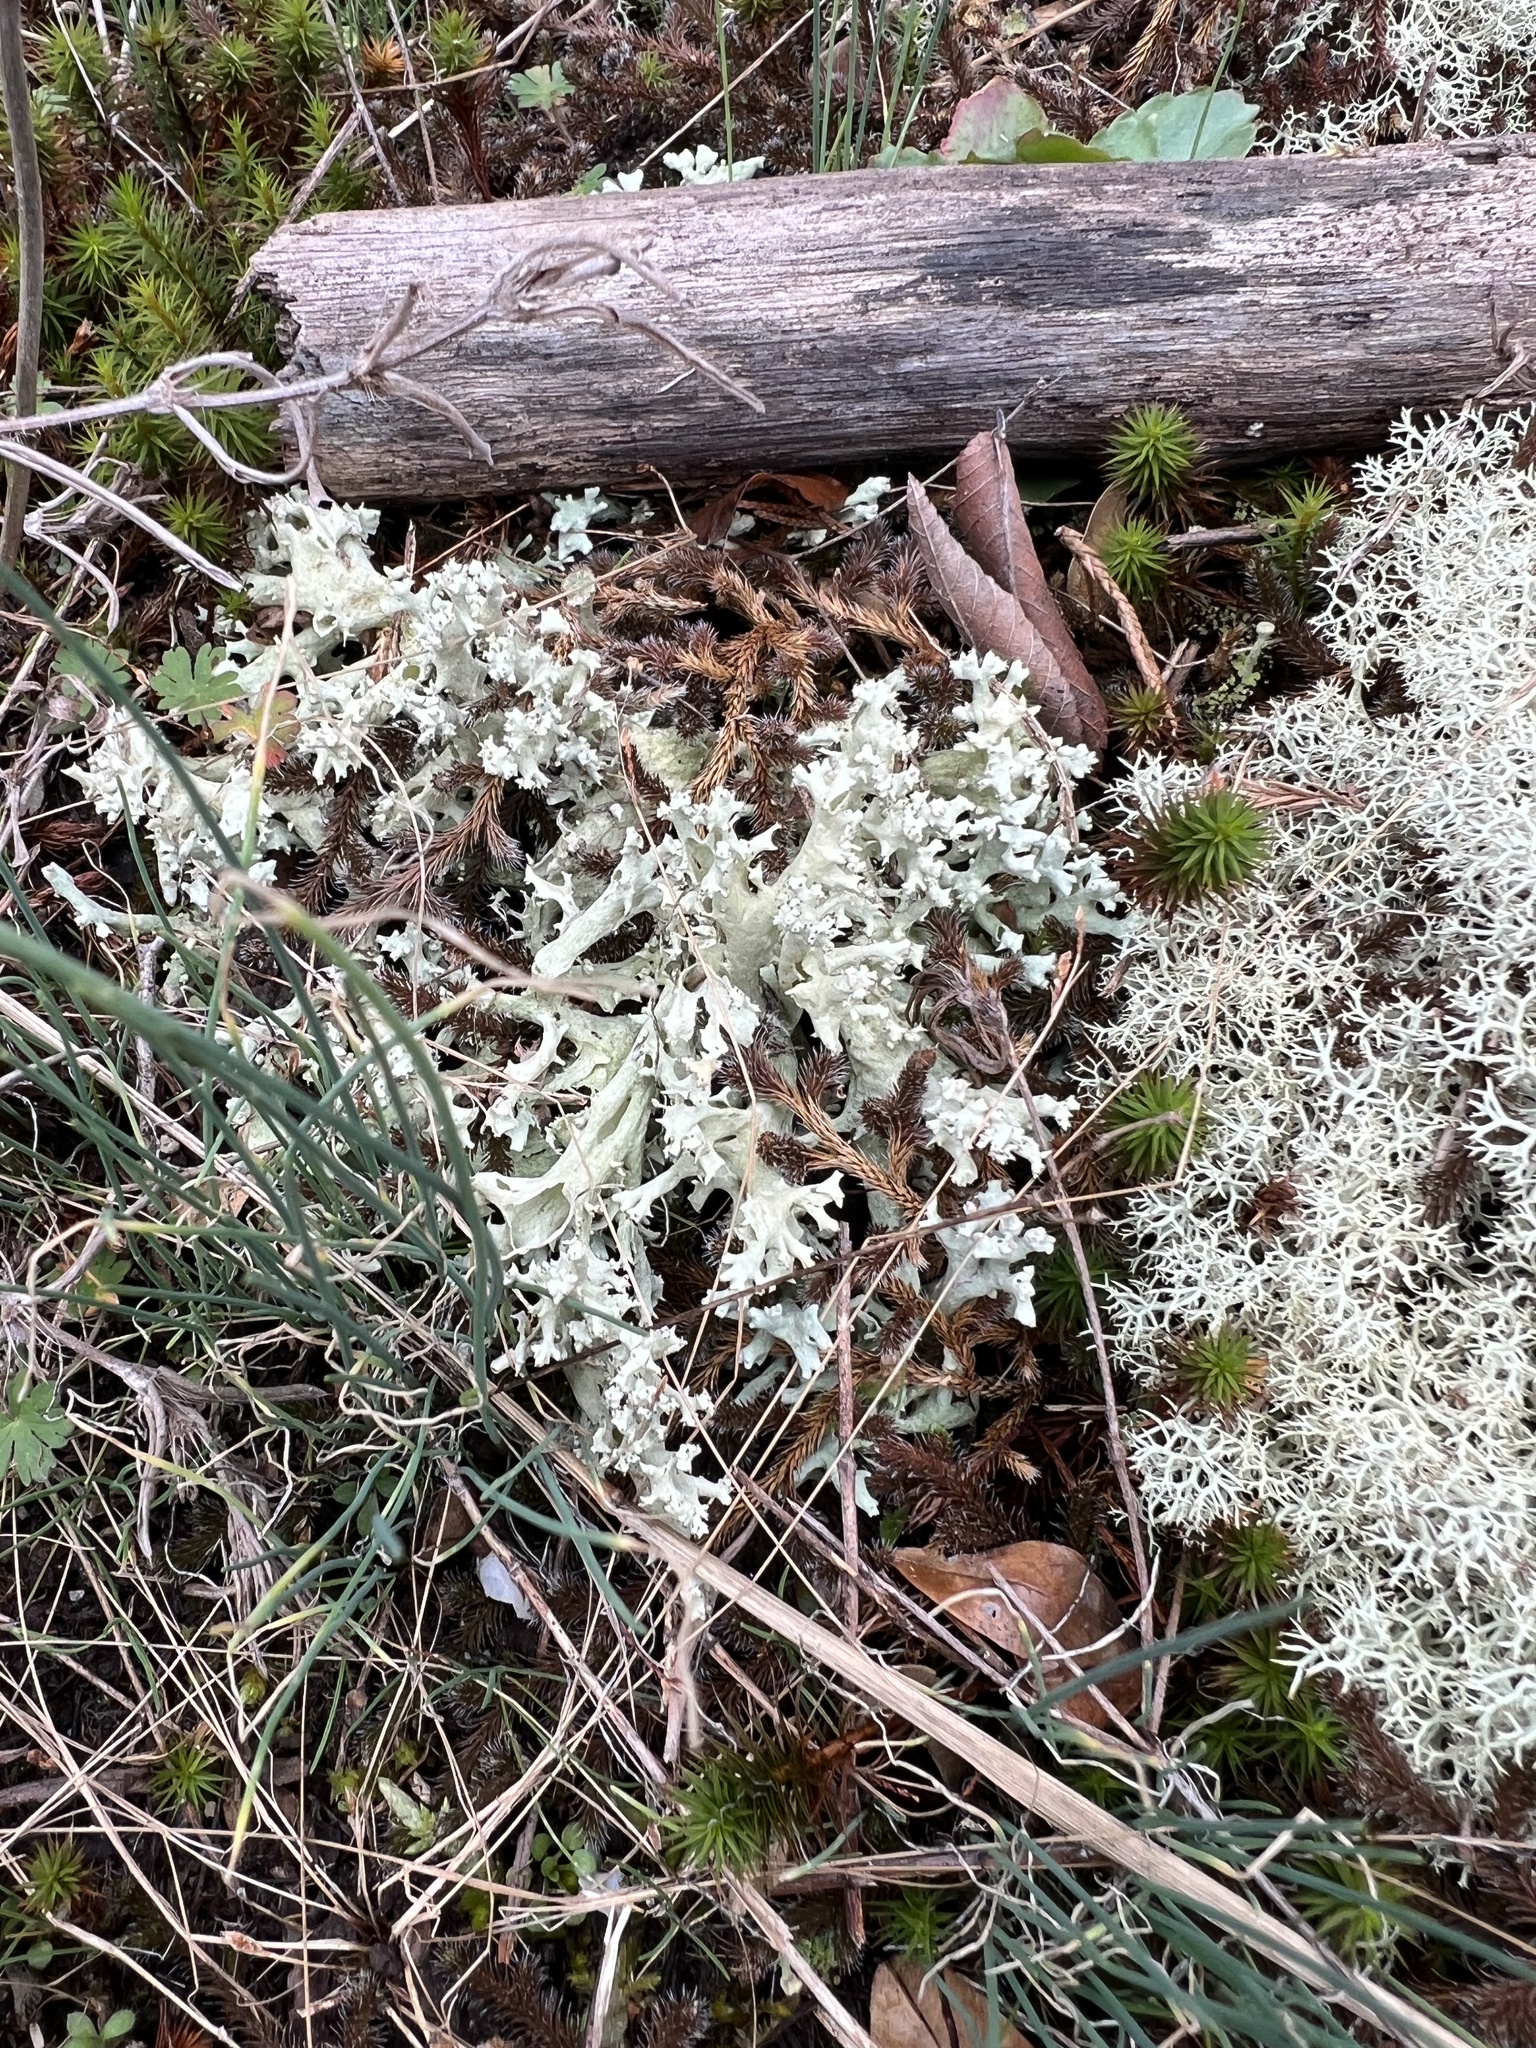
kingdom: Fungi
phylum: Ascomycota
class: Lecanoromycetes
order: Lecanorales
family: Cladoniaceae
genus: Cladonia
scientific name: Cladonia caroliniana
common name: Granite thorn
